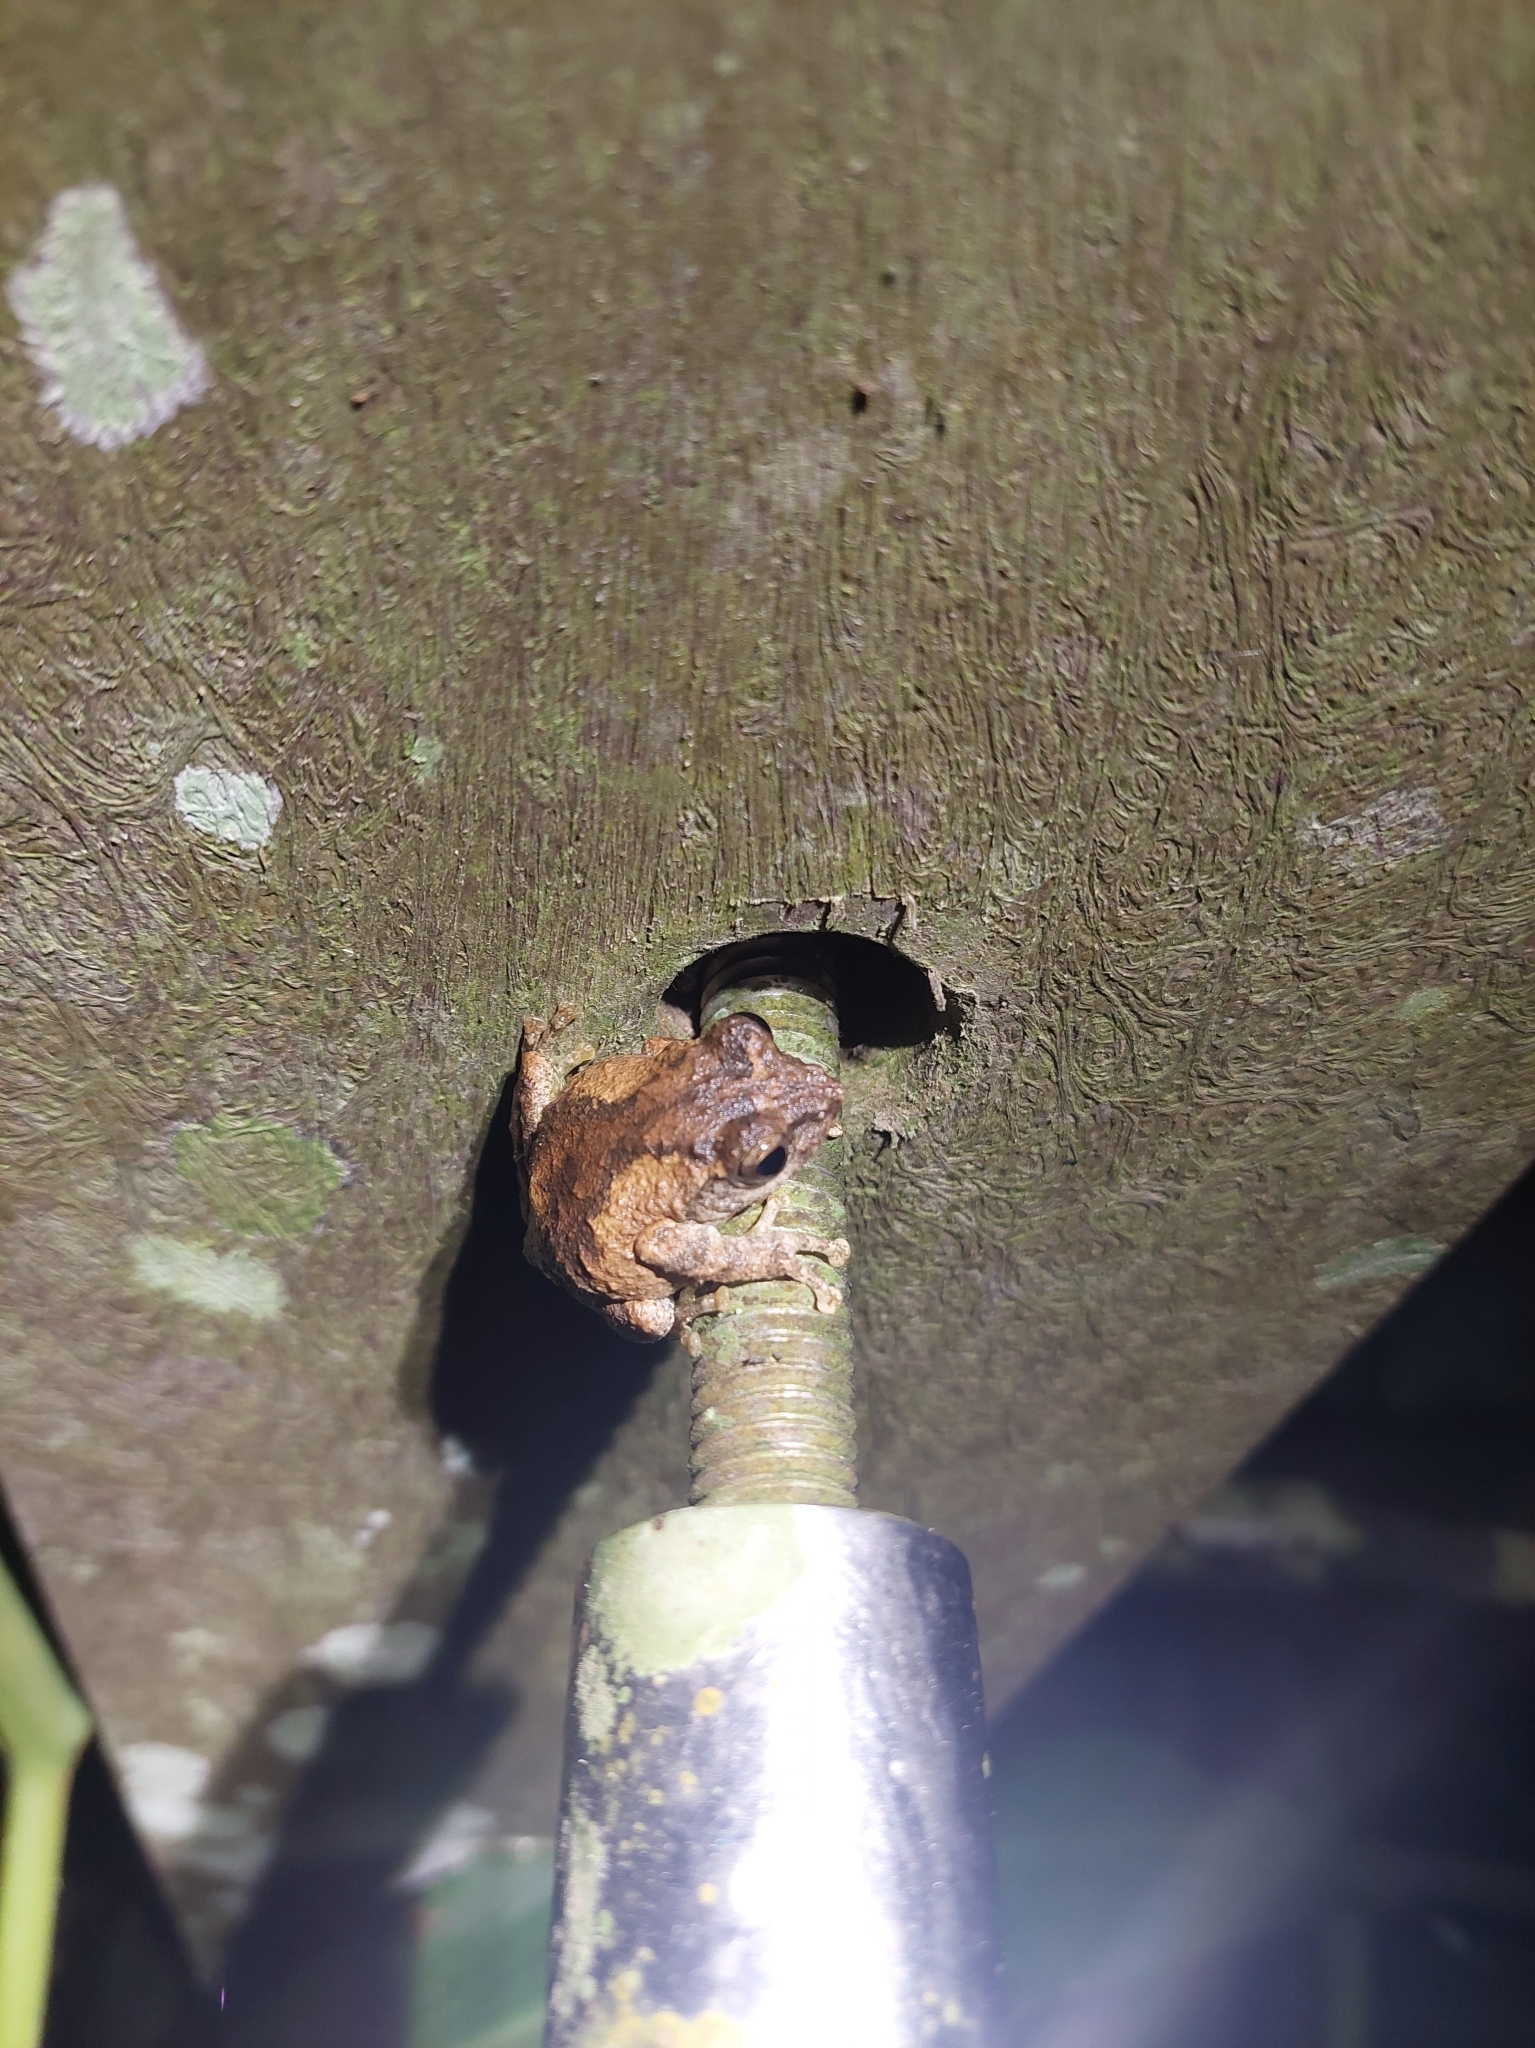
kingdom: Animalia
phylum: Chordata
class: Amphibia
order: Anura
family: Rhacophoridae
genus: Kurixalus
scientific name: Kurixalus idiootocus
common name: Temple treefrog
